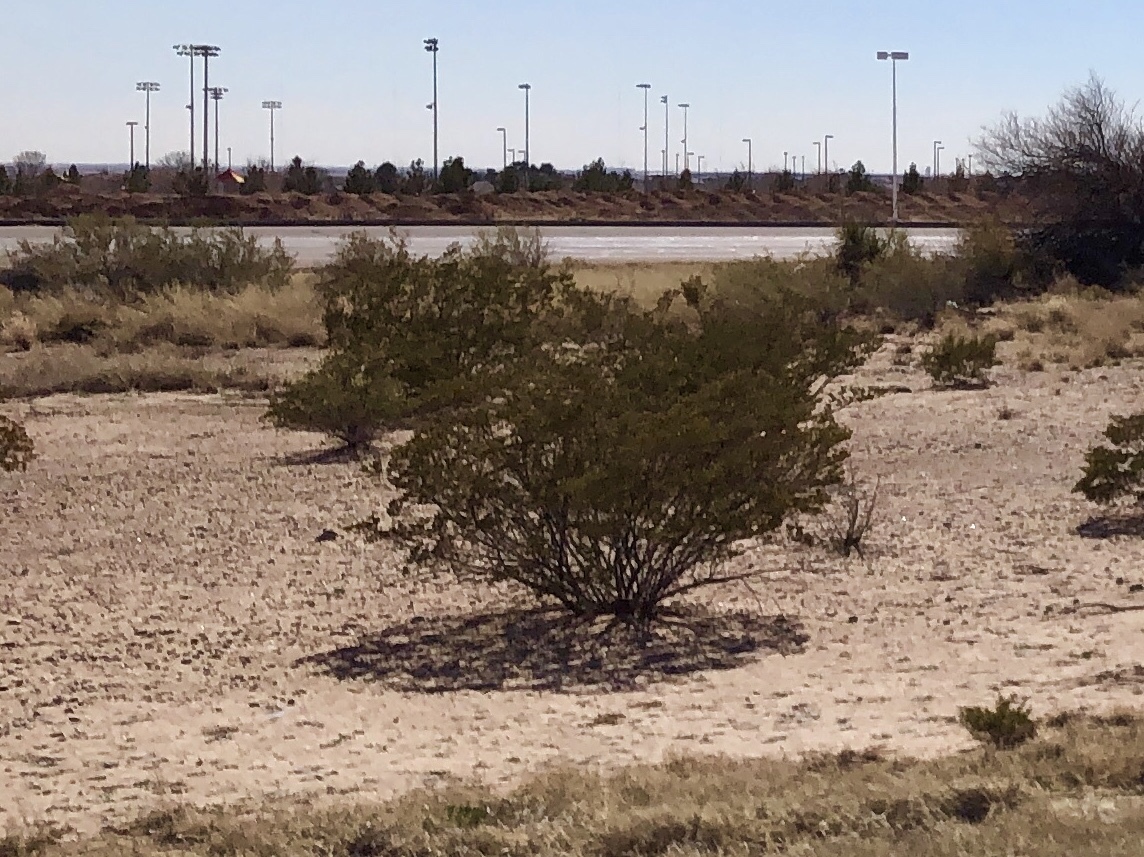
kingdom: Plantae
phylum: Tracheophyta
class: Magnoliopsida
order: Zygophyllales
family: Zygophyllaceae
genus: Larrea
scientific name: Larrea tridentata
